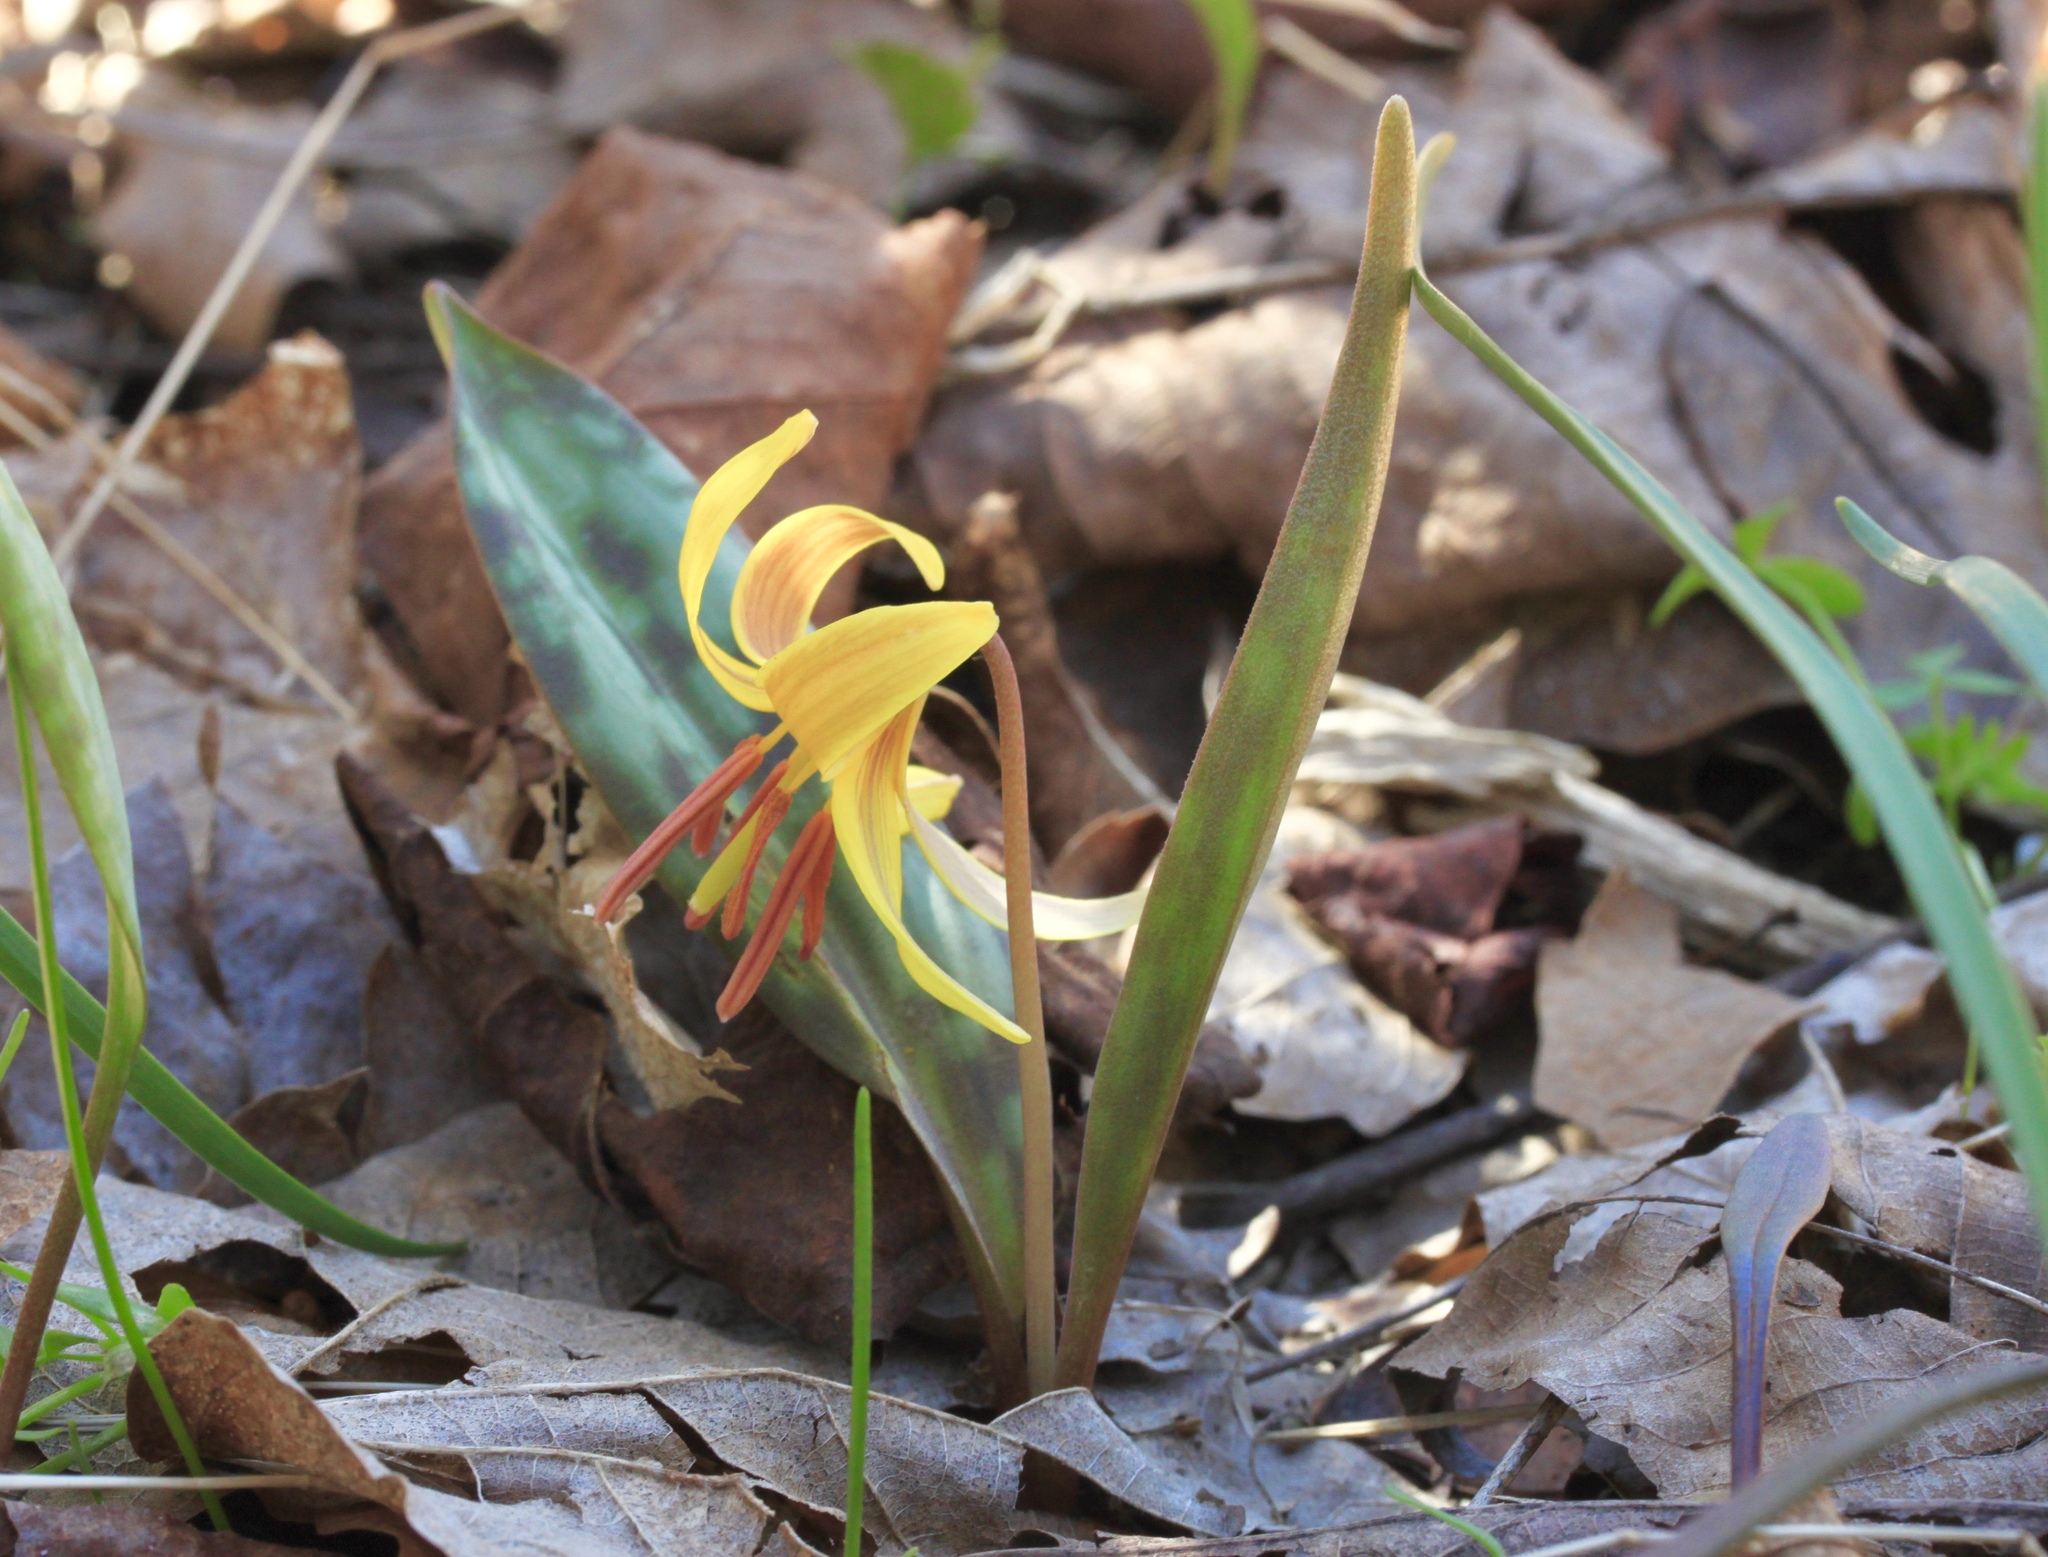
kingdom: Plantae
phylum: Tracheophyta
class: Liliopsida
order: Liliales
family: Liliaceae
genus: Erythronium
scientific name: Erythronium americanum
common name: Yellow adder's-tongue
